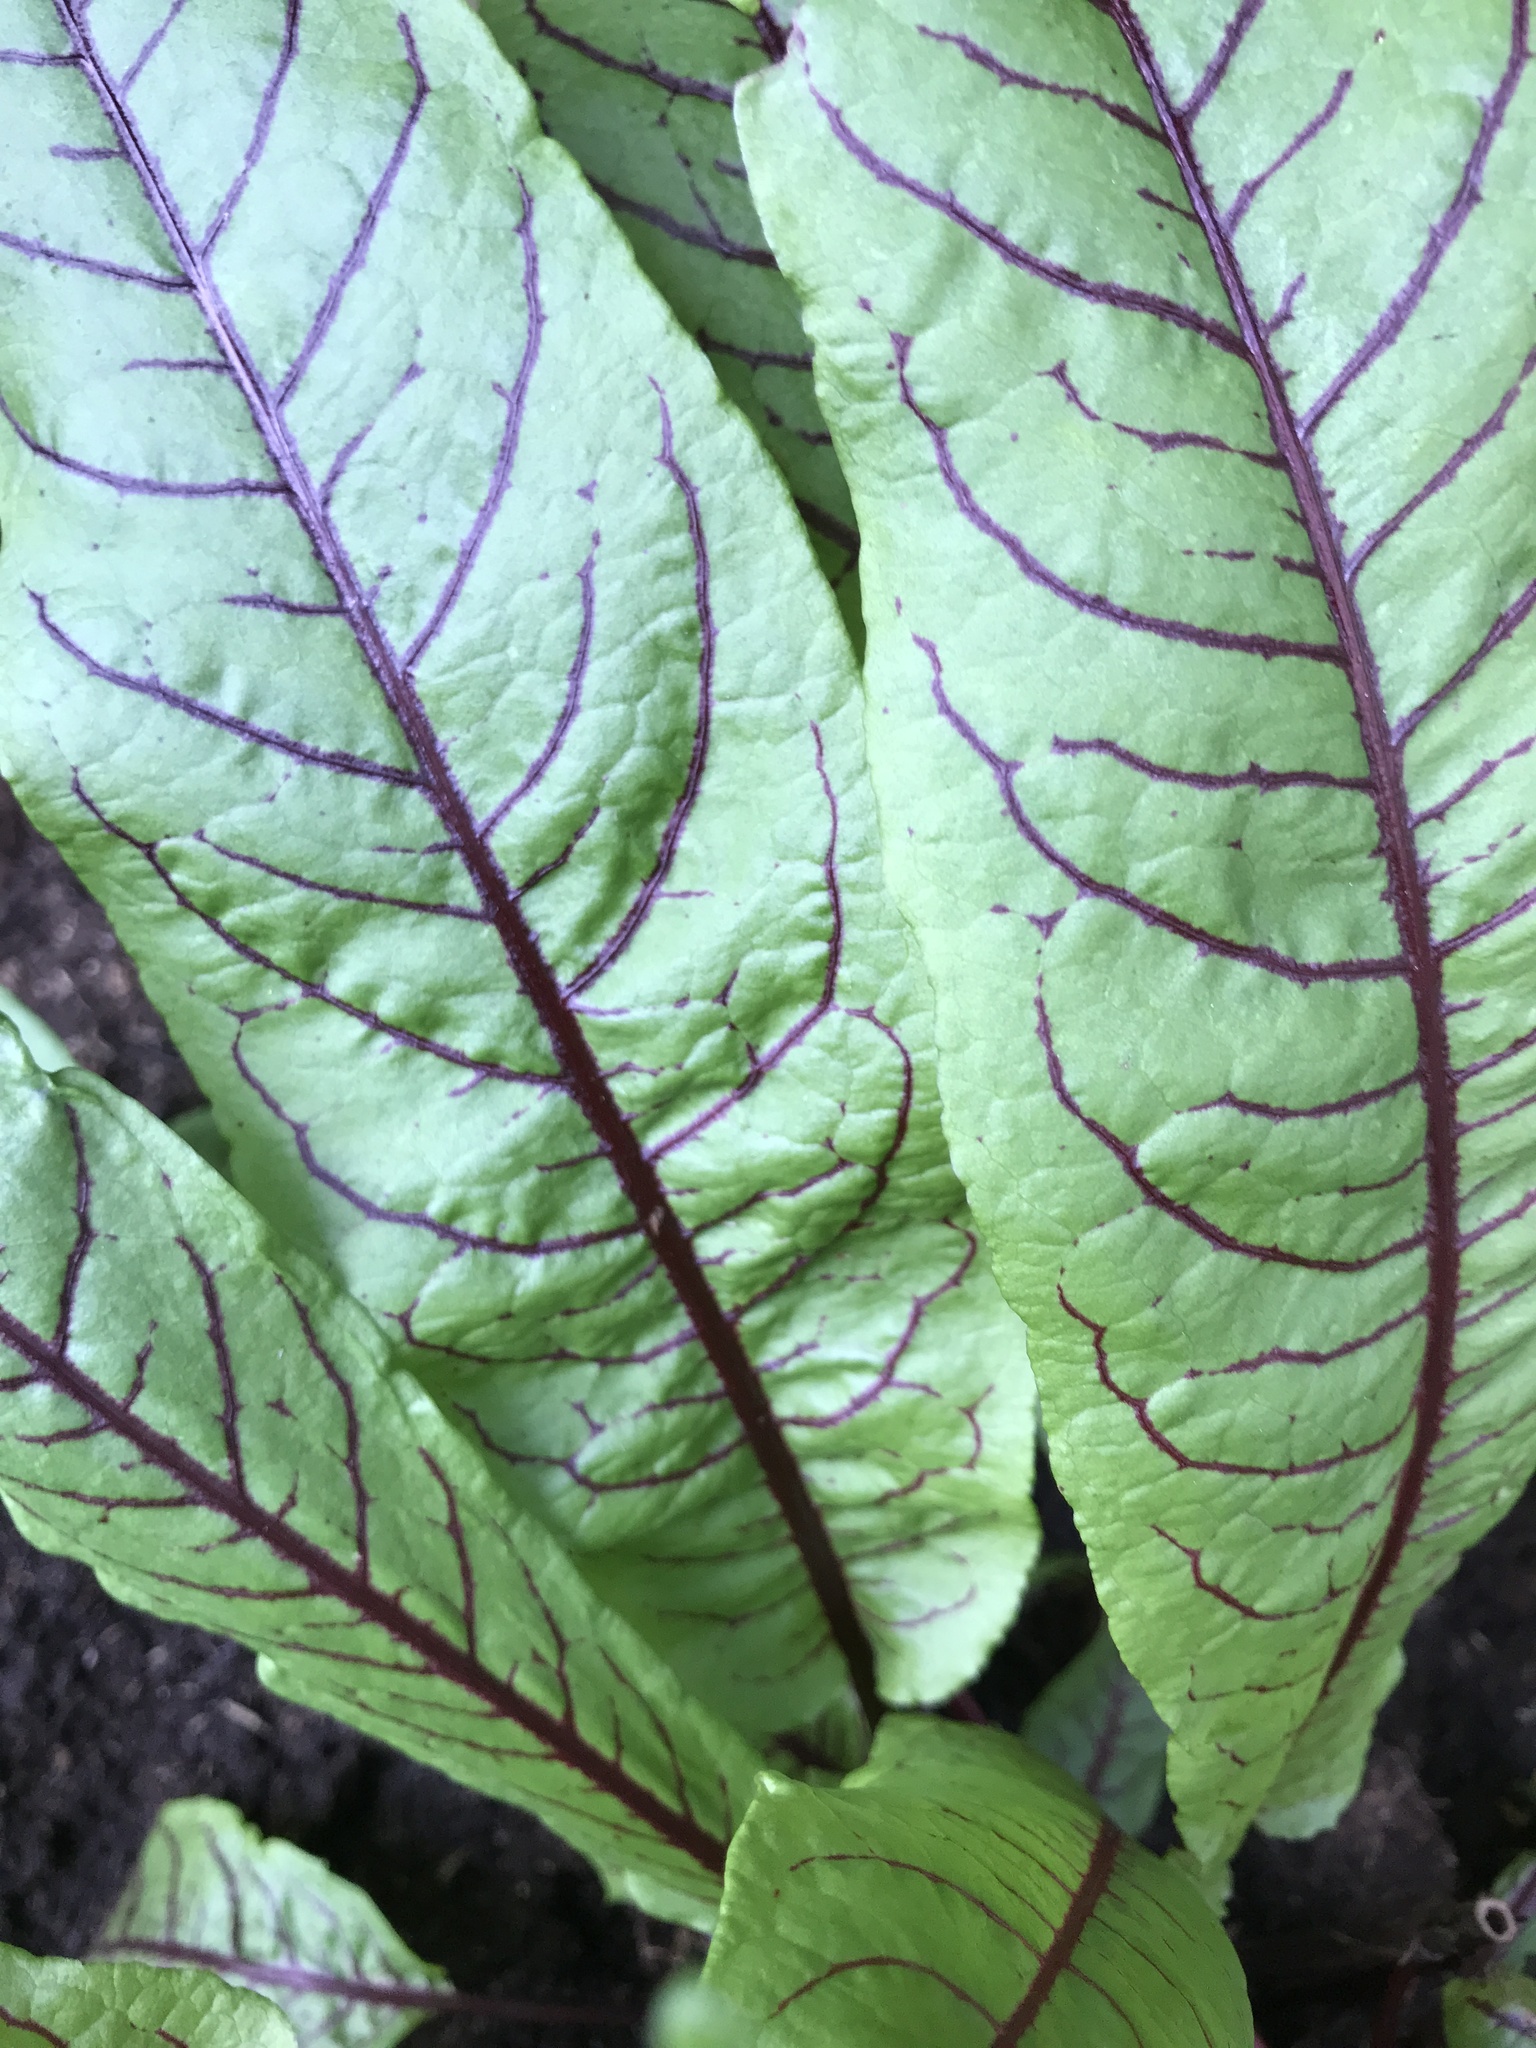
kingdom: Plantae
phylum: Tracheophyta
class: Magnoliopsida
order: Caryophyllales
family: Polygonaceae
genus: Rumex
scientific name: Rumex sanguineus
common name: Wood dock
